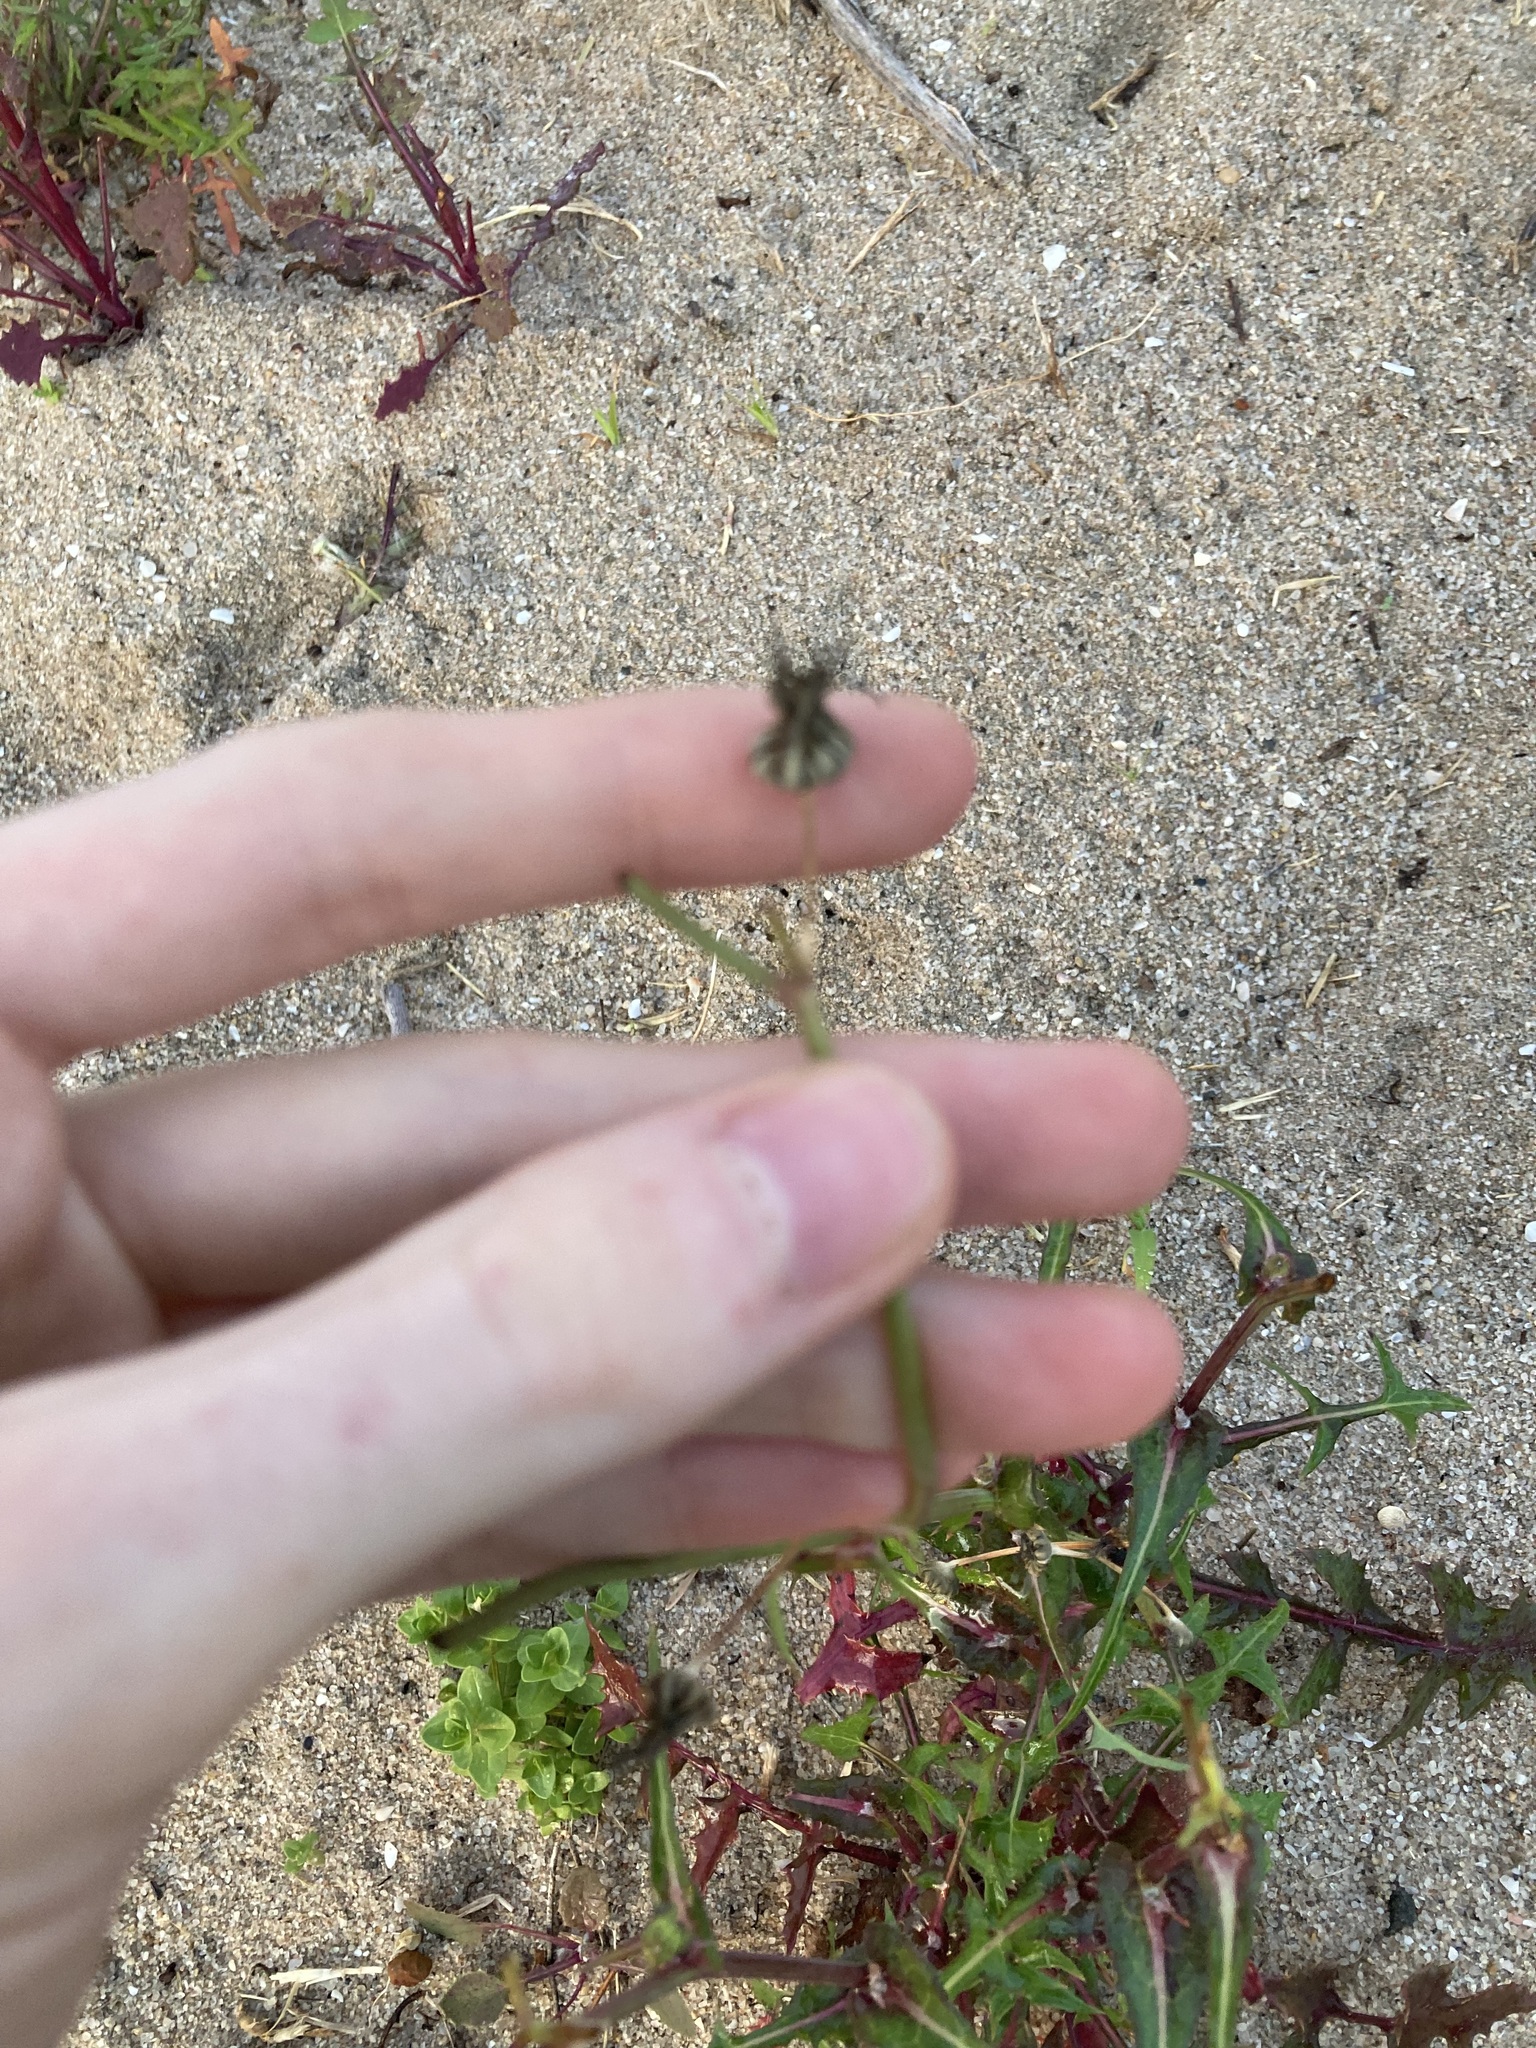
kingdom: Plantae
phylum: Tracheophyta
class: Magnoliopsida
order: Asterales
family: Asteraceae
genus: Sonchus
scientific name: Sonchus oleraceus
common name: Common sowthistle
